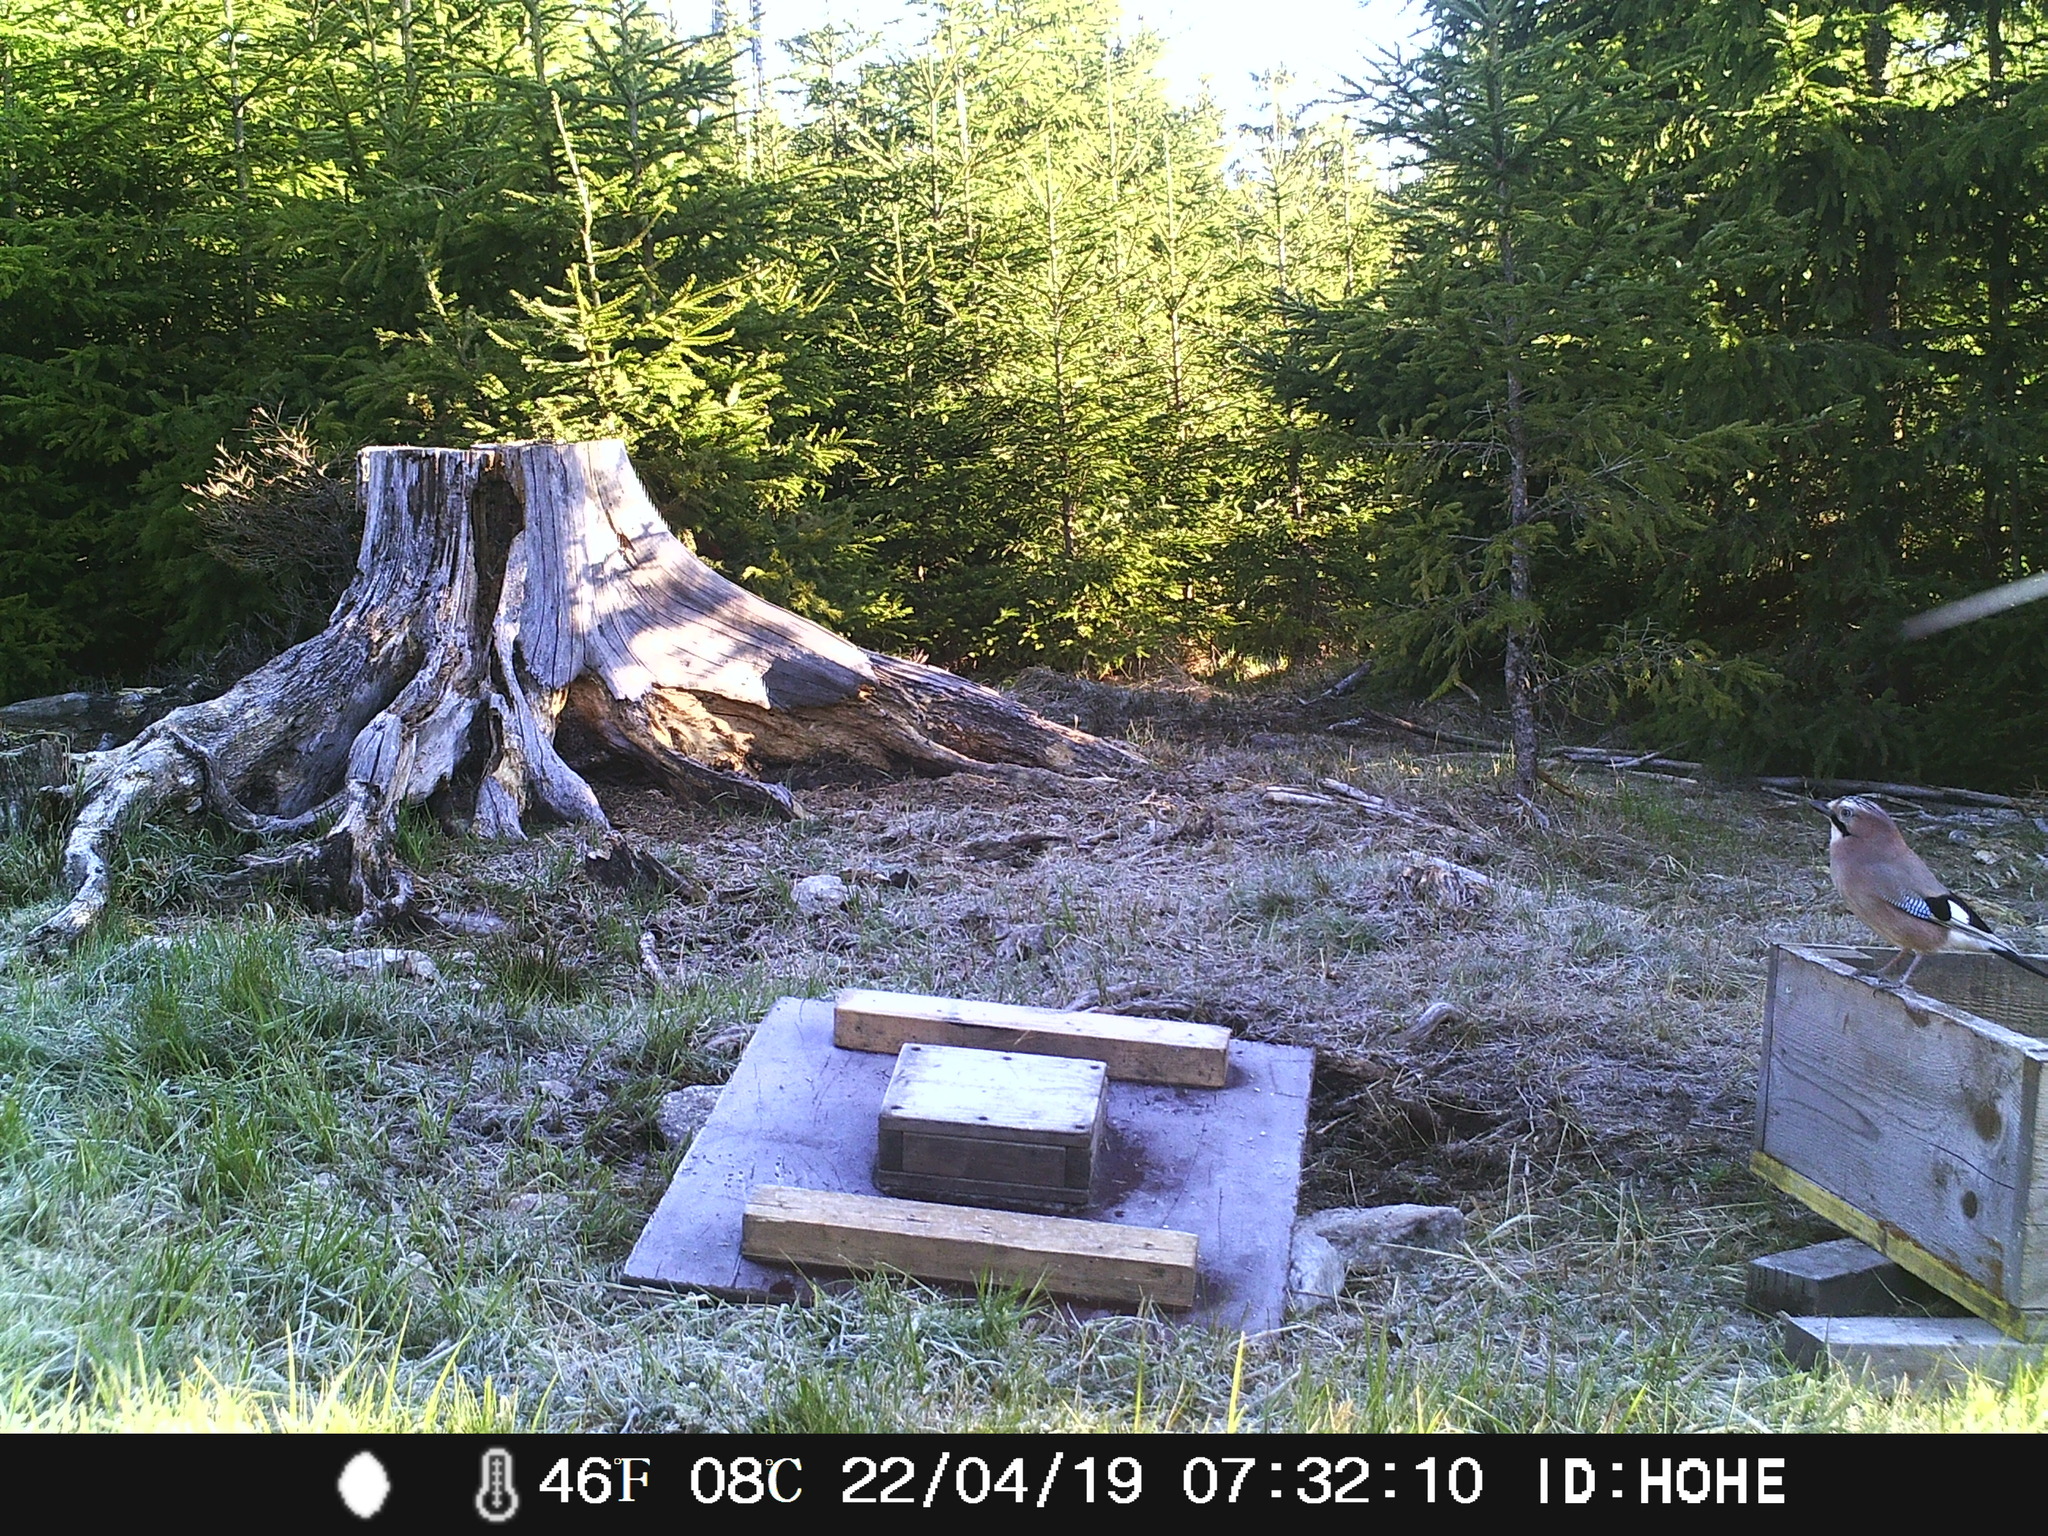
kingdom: Animalia
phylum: Chordata
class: Aves
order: Passeriformes
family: Corvidae
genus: Garrulus
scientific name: Garrulus glandarius
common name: Eurasian jay
